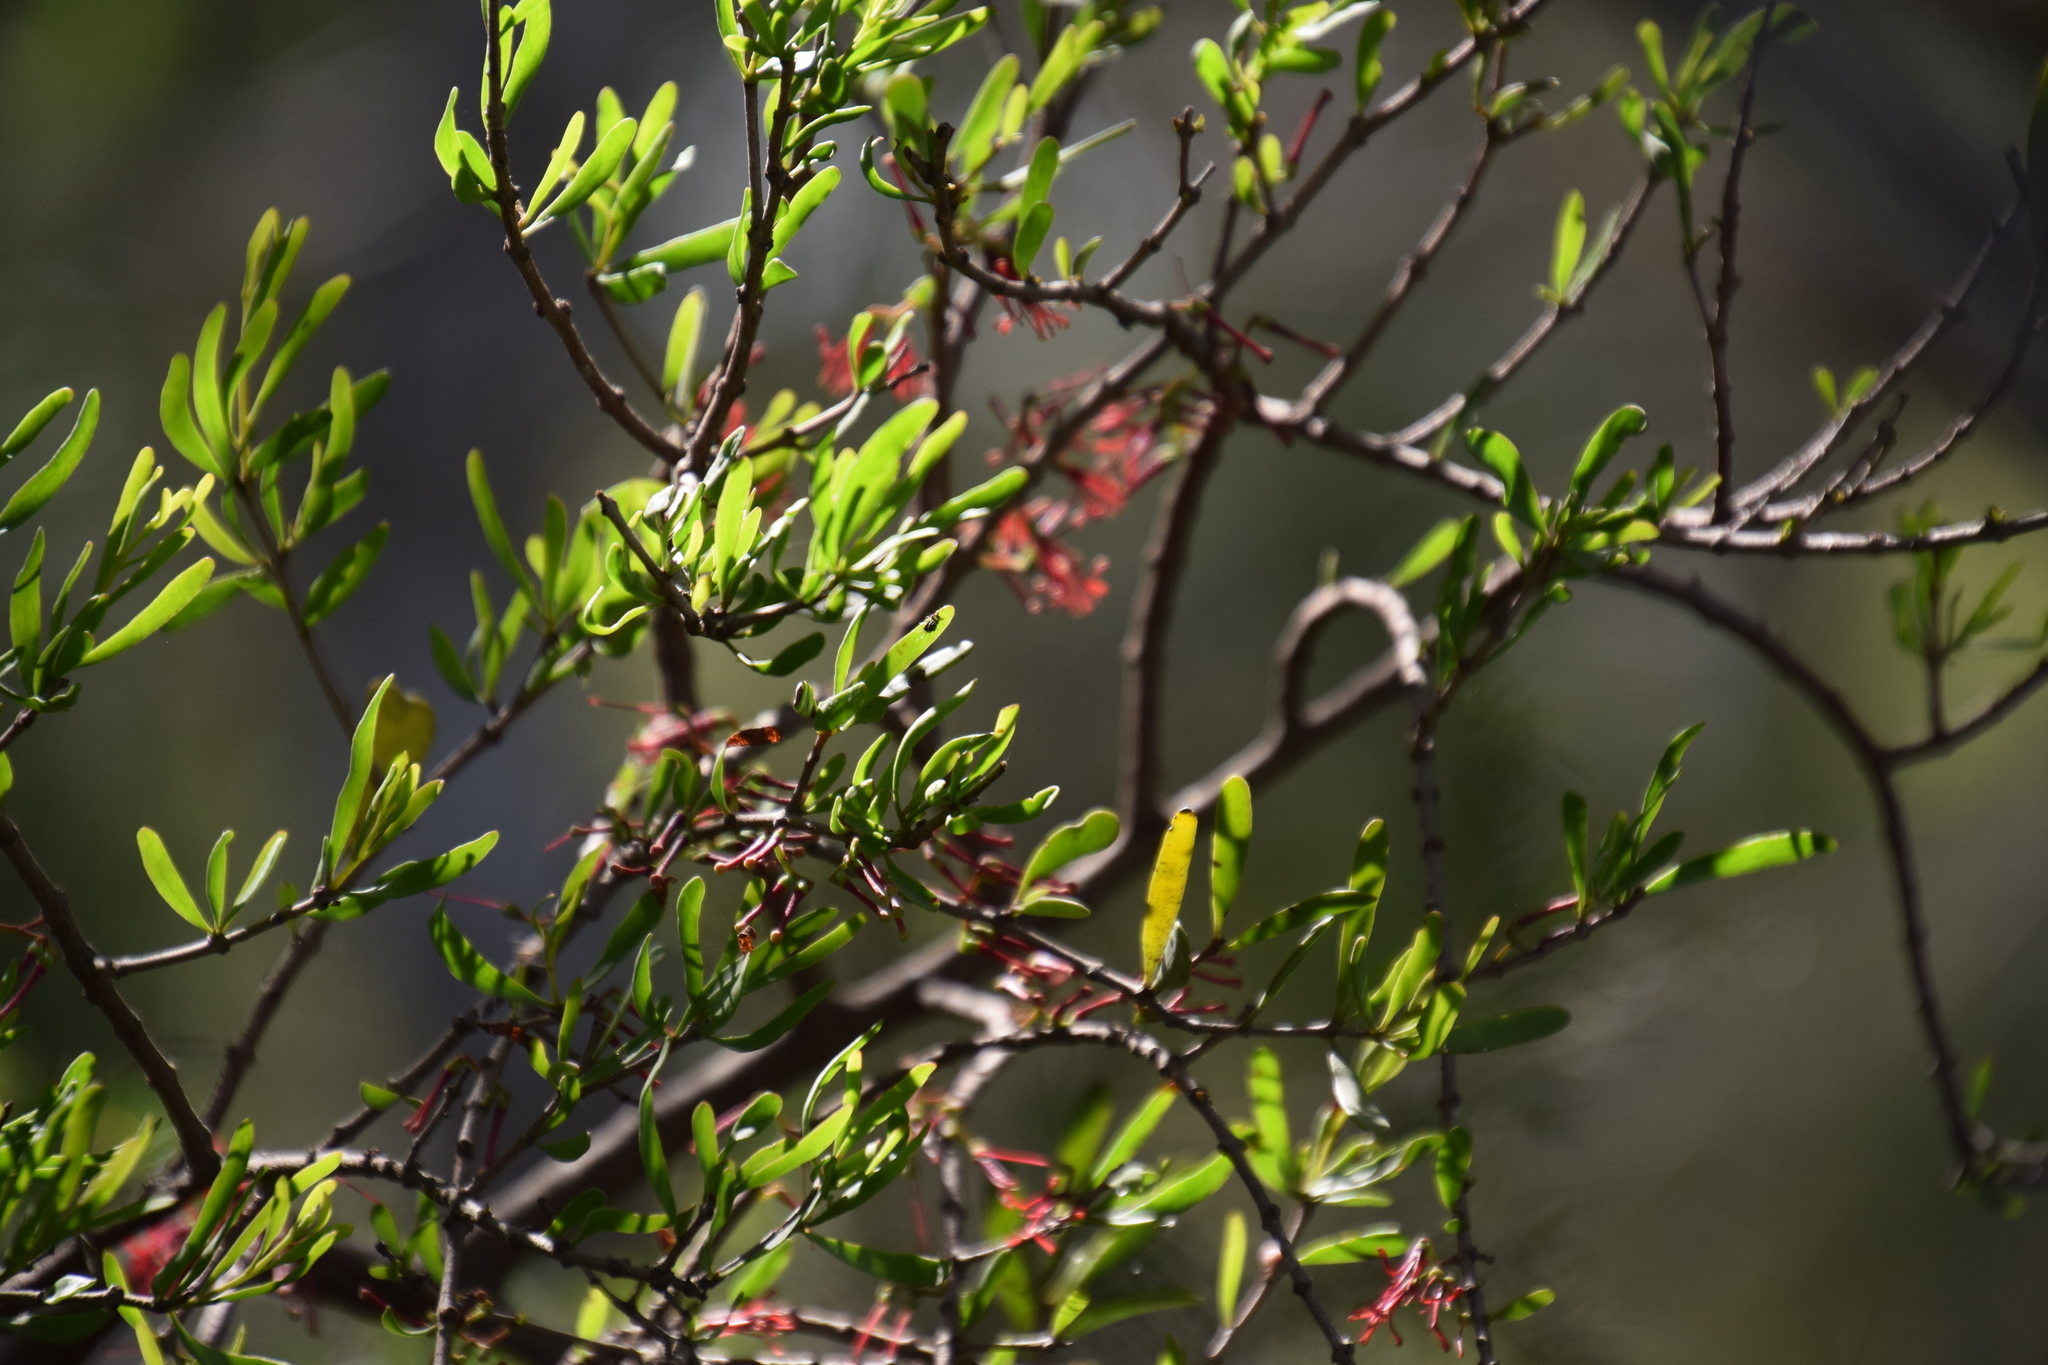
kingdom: Plantae
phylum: Tracheophyta
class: Magnoliopsida
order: Santalales
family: Loranthaceae
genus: Amyema
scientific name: Amyema gaudichaudii
